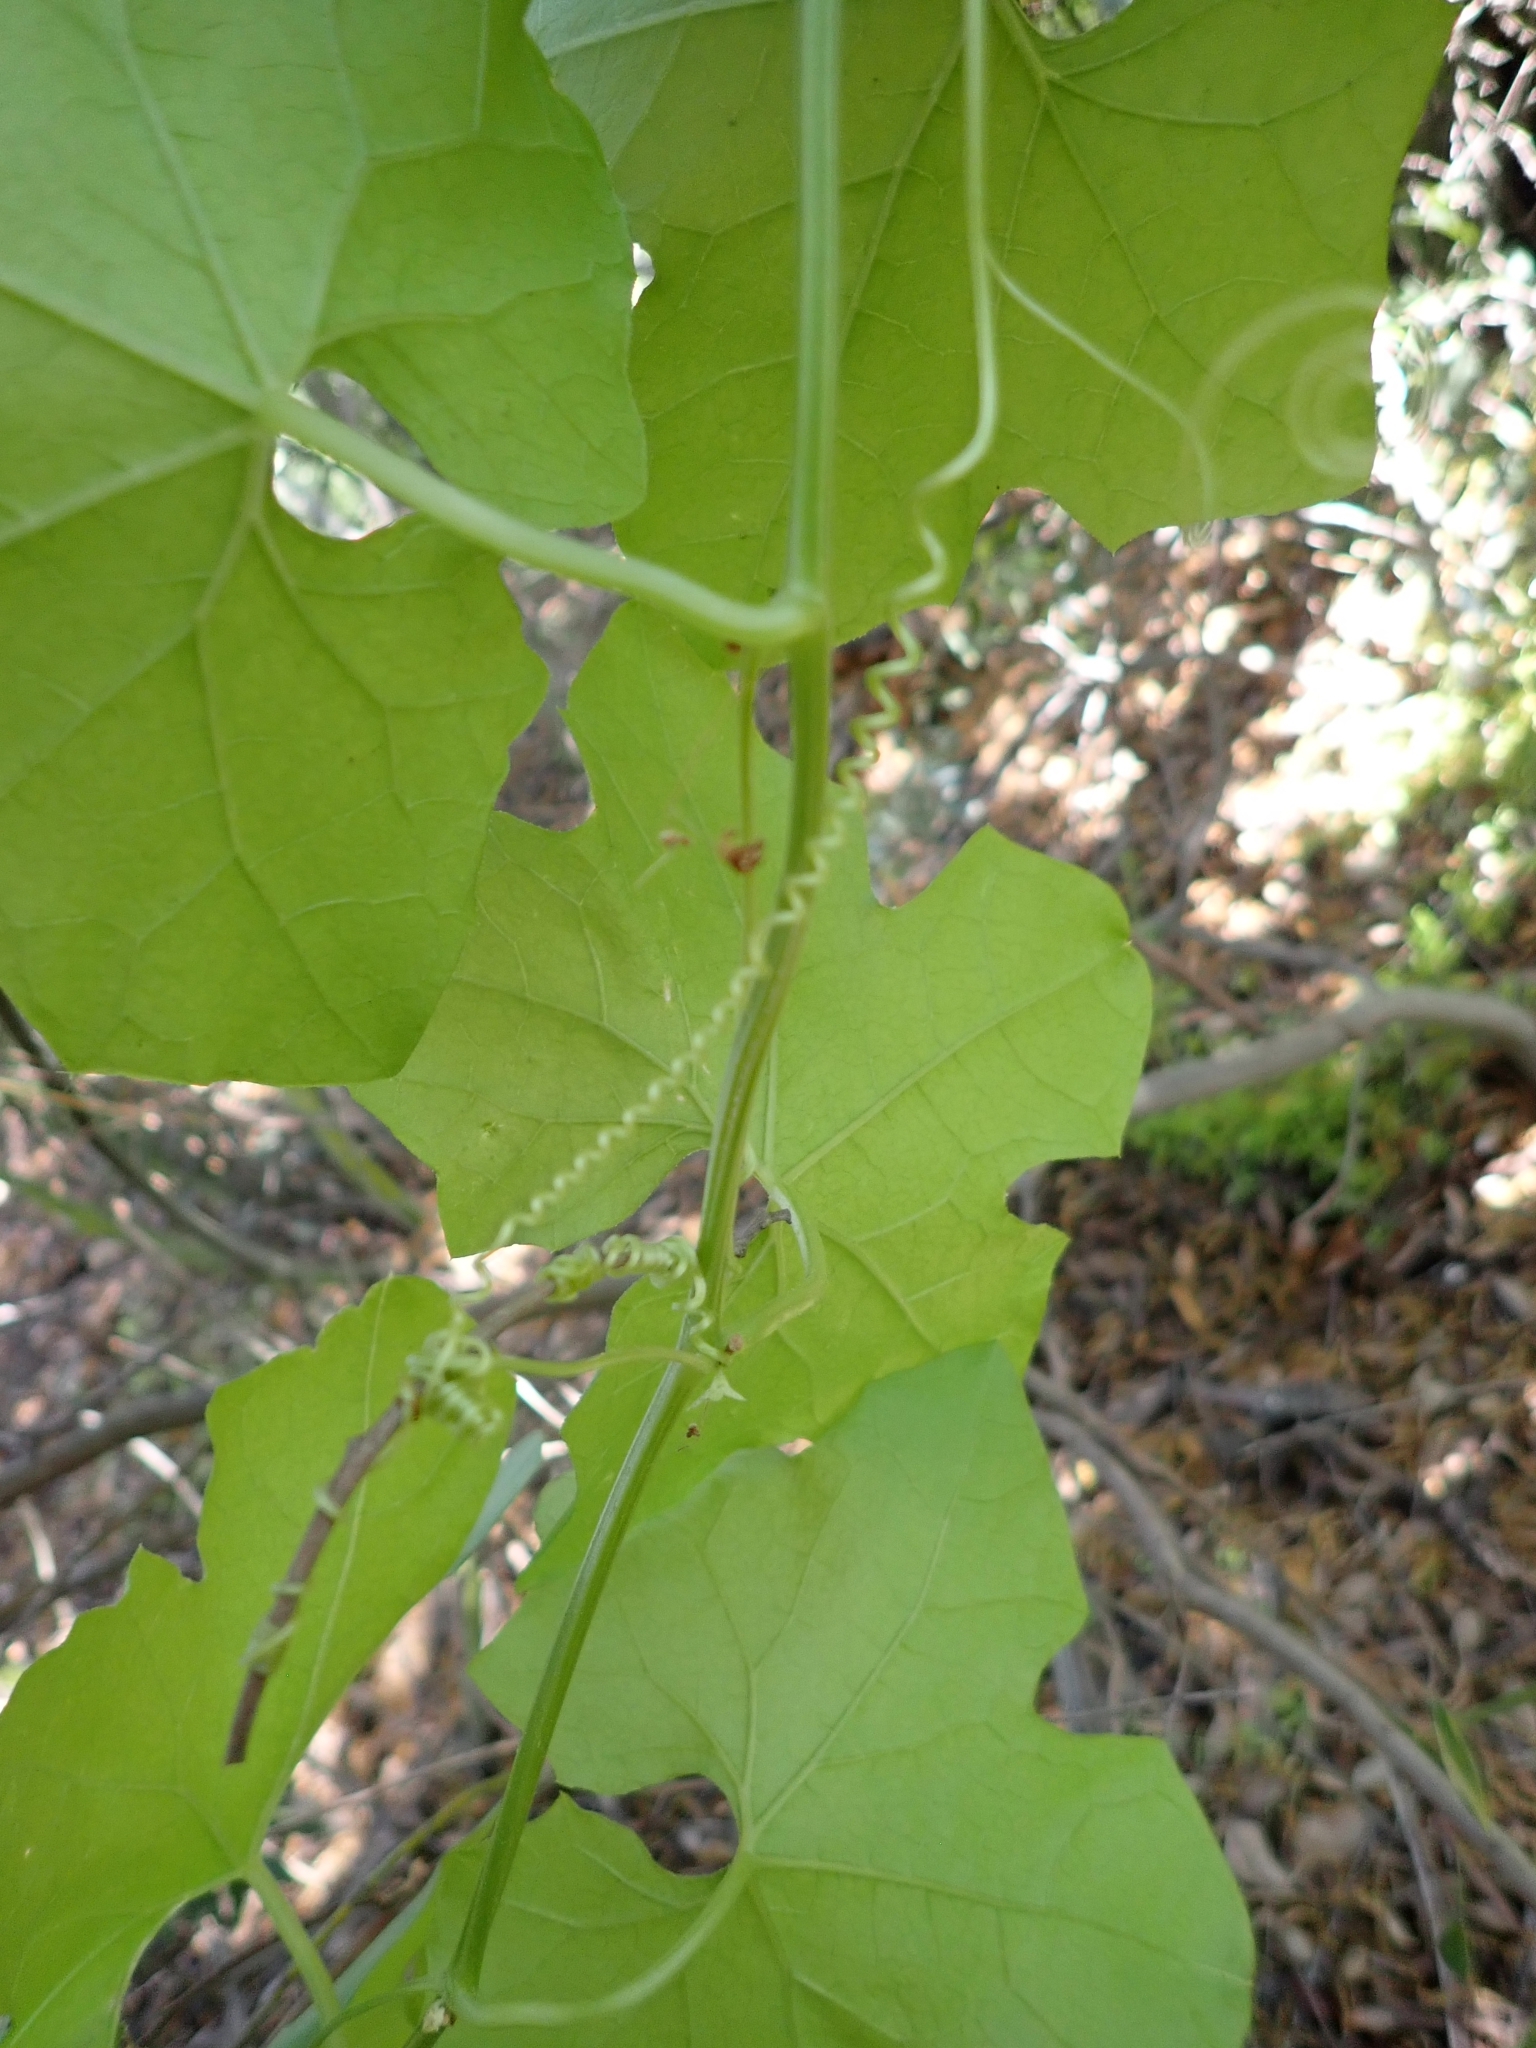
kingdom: Plantae
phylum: Tracheophyta
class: Magnoliopsida
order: Cucurbitales
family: Cucurbitaceae
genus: Marah
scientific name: Marah macrocarpa
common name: Cucamonga manroot
